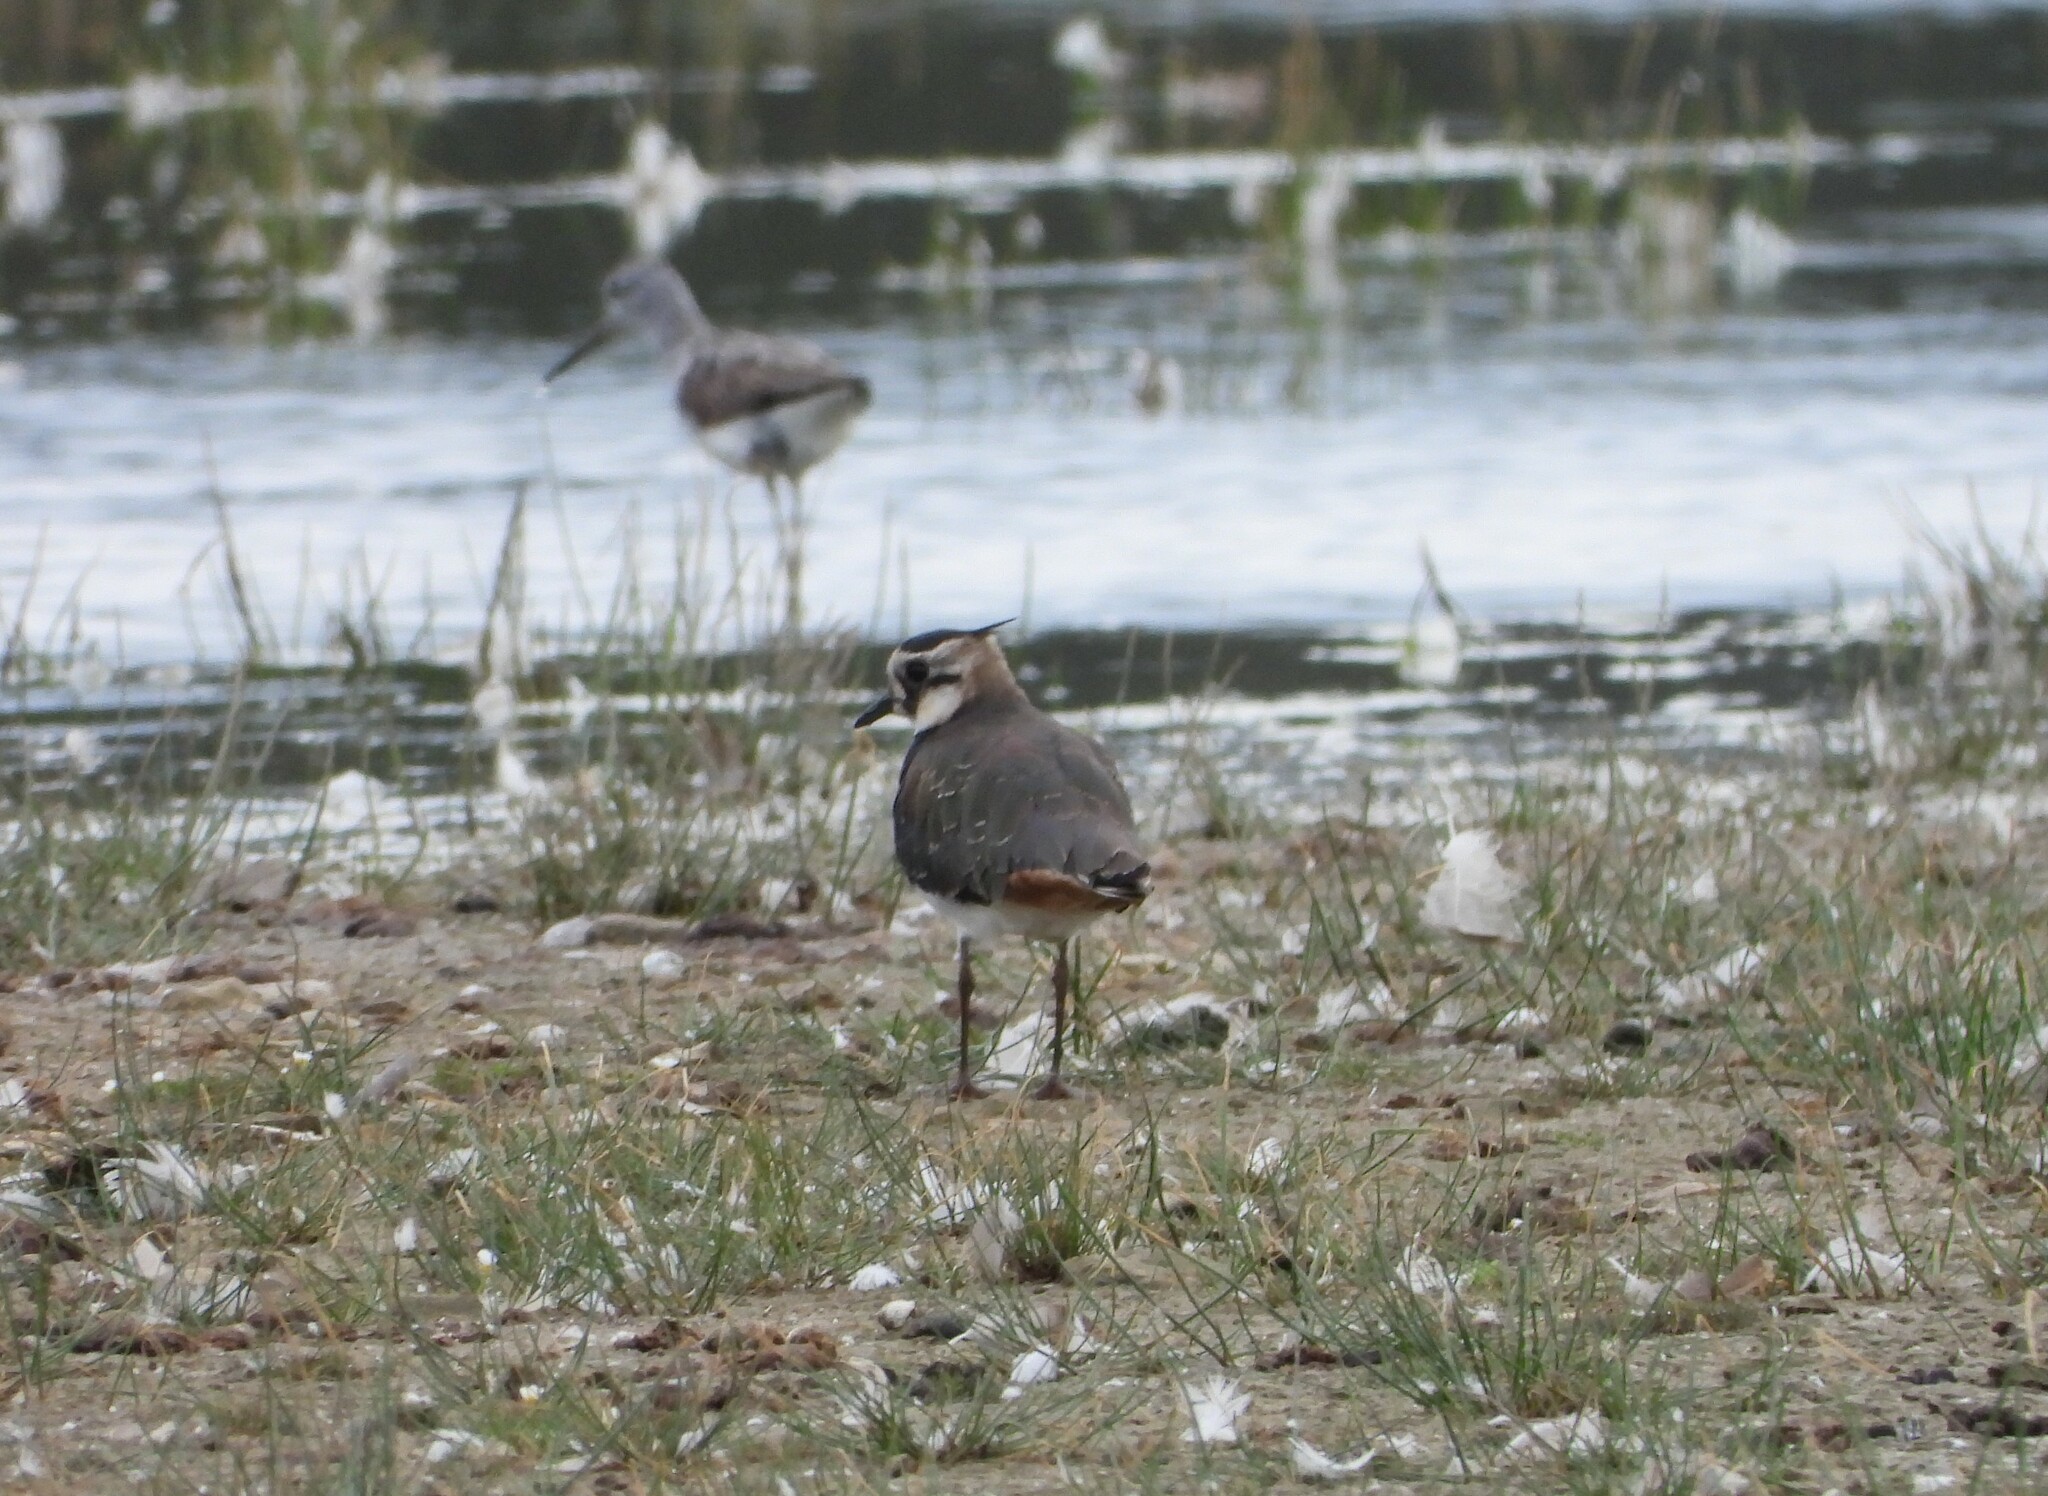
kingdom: Animalia
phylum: Chordata
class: Aves
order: Charadriiformes
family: Charadriidae
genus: Vanellus
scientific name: Vanellus vanellus
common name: Northern lapwing
